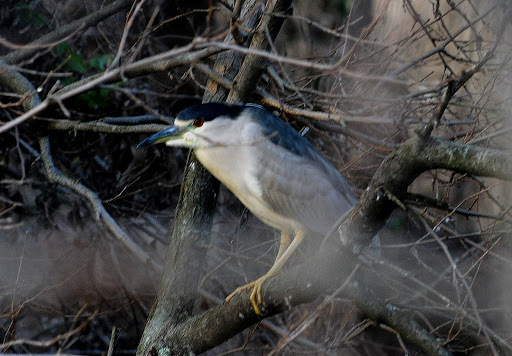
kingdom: Animalia
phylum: Chordata
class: Aves
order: Pelecaniformes
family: Ardeidae
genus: Nycticorax
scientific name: Nycticorax nycticorax
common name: Black-crowned night heron
